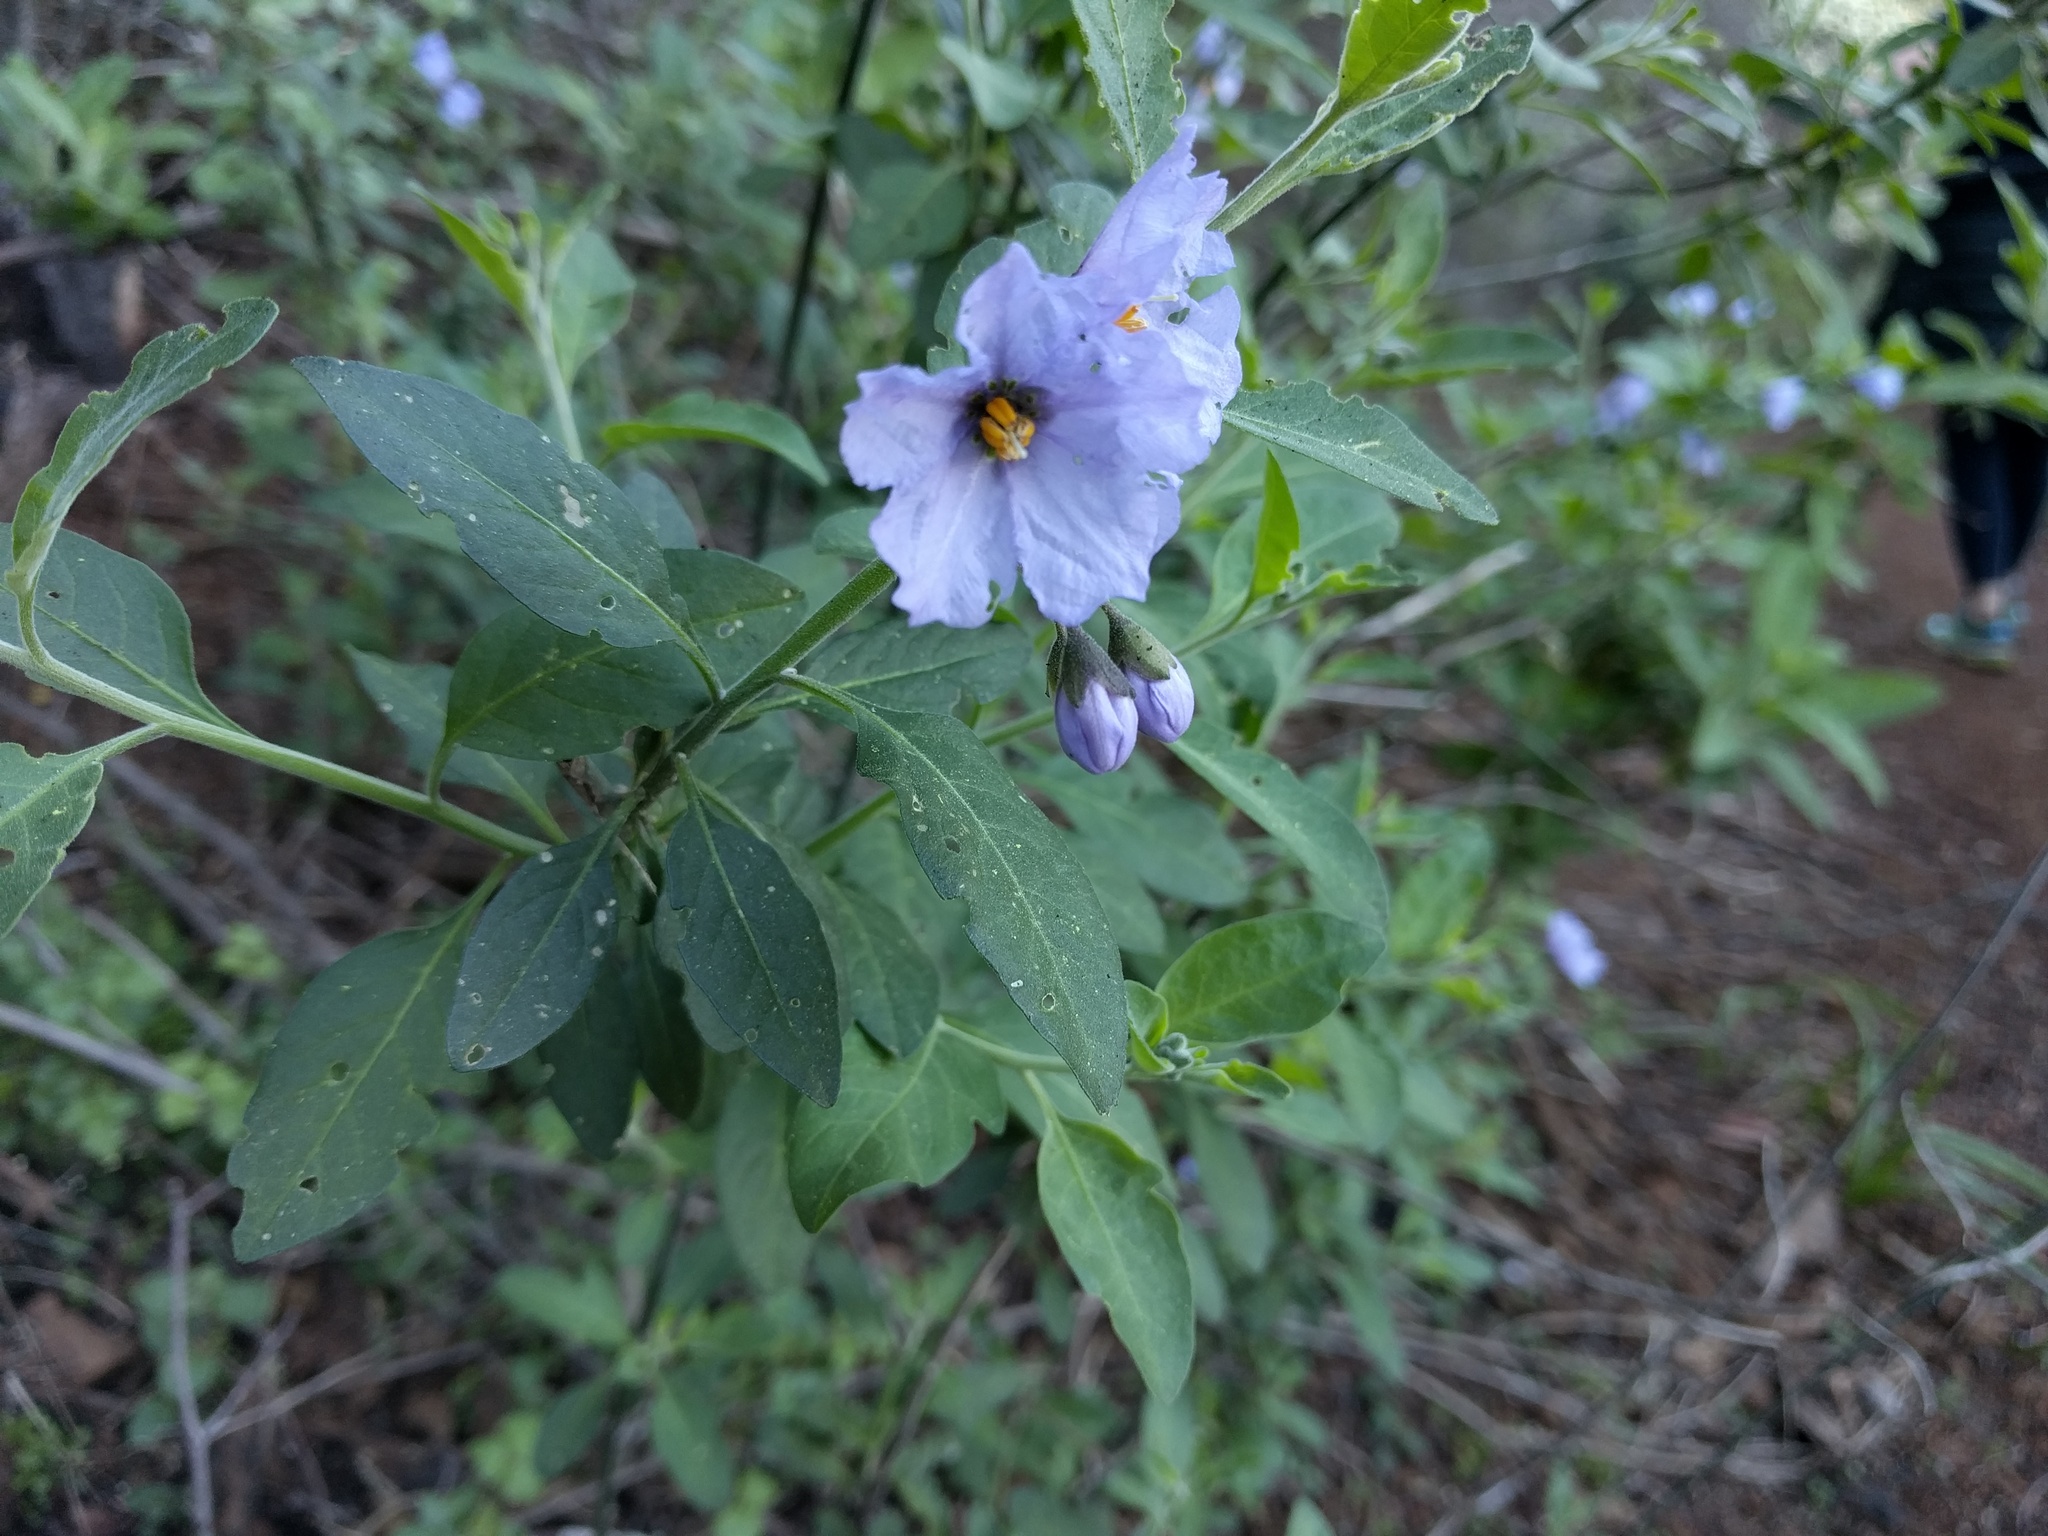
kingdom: Plantae
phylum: Tracheophyta
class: Magnoliopsida
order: Solanales
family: Solanaceae
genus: Solanum
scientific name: Solanum umbelliferum
